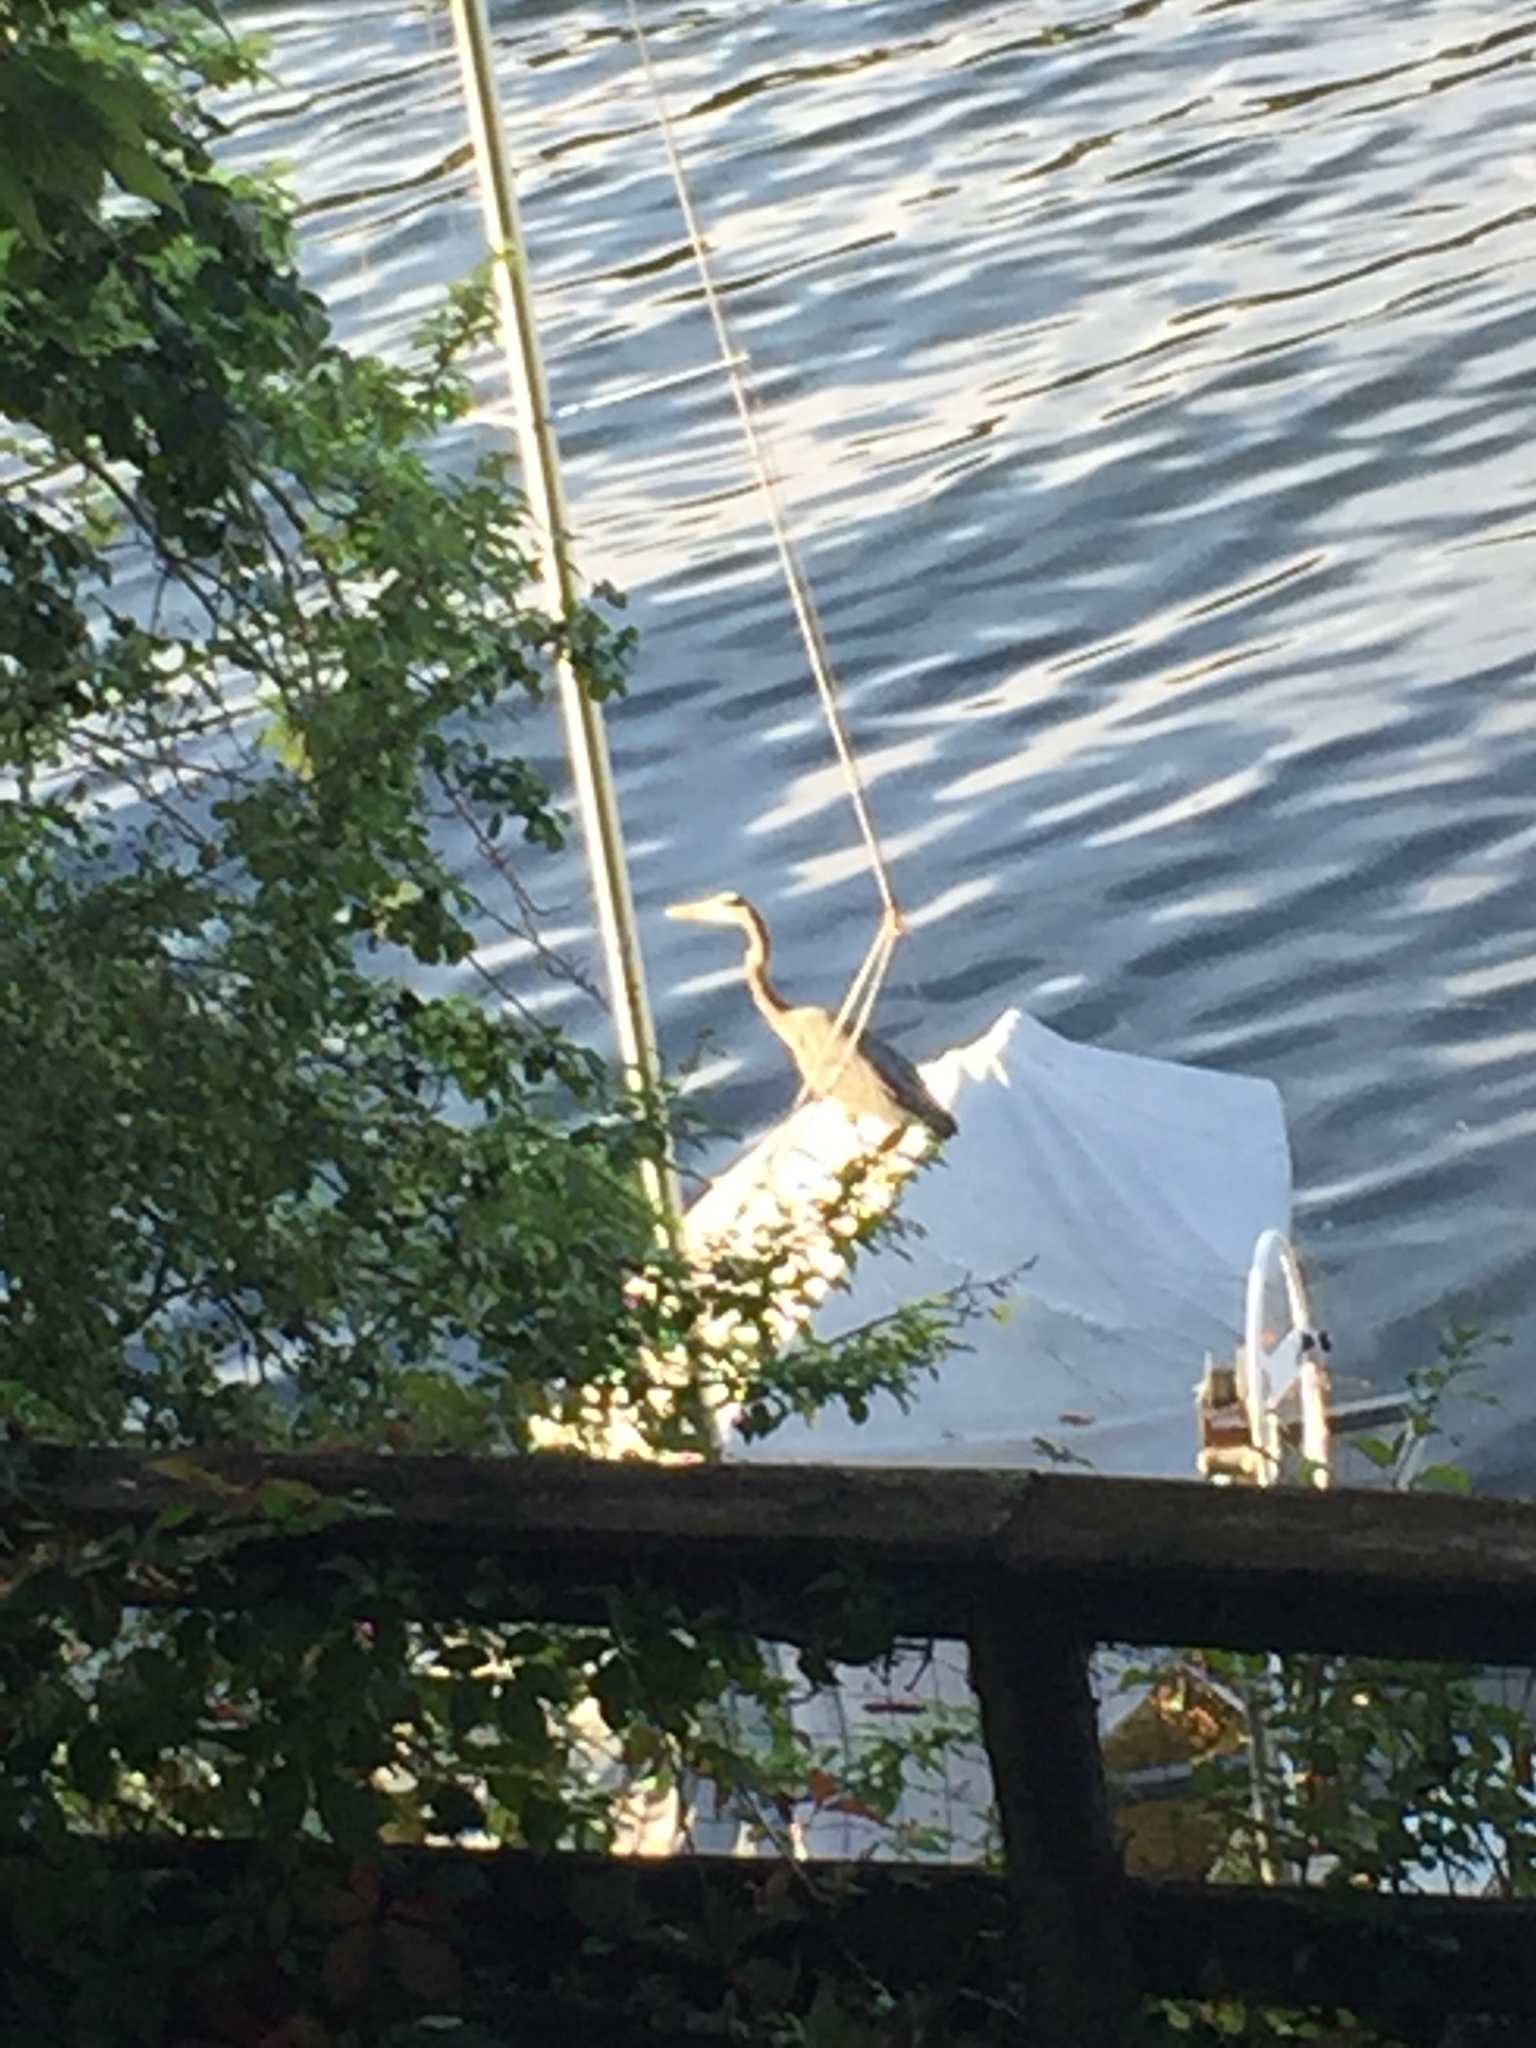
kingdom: Animalia
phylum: Chordata
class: Aves
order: Pelecaniformes
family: Ardeidae
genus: Ardea
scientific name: Ardea herodias
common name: Great blue heron
